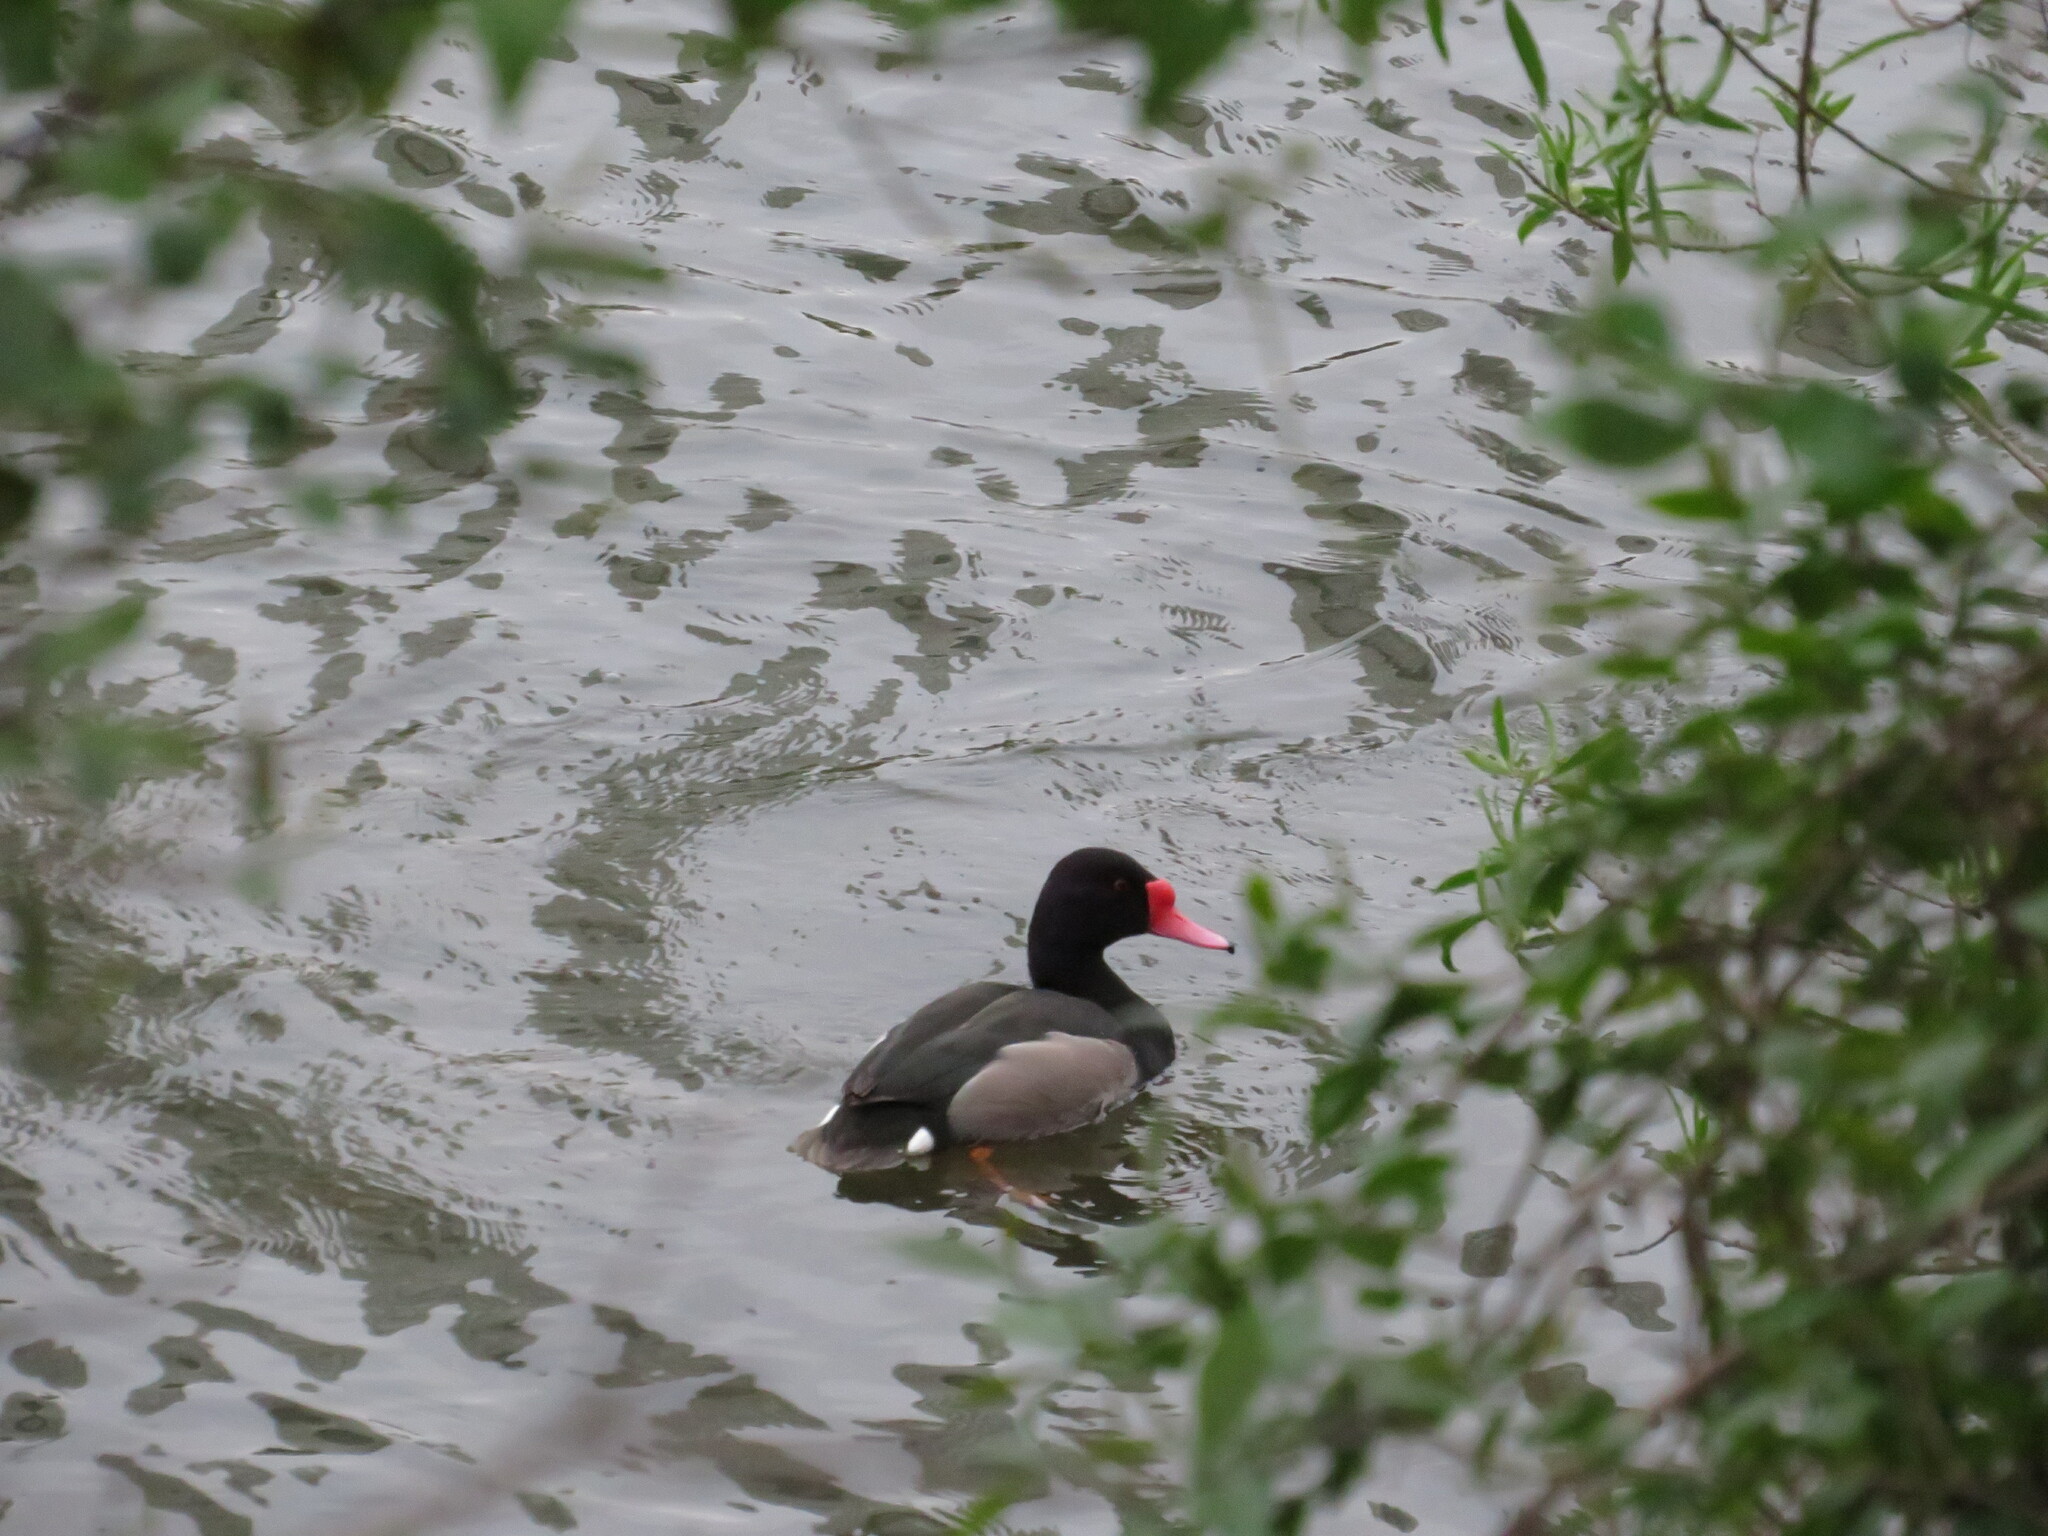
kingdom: Animalia
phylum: Chordata
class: Aves
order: Anseriformes
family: Anatidae
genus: Netta
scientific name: Netta peposaca
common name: Rosy-billed pochard
